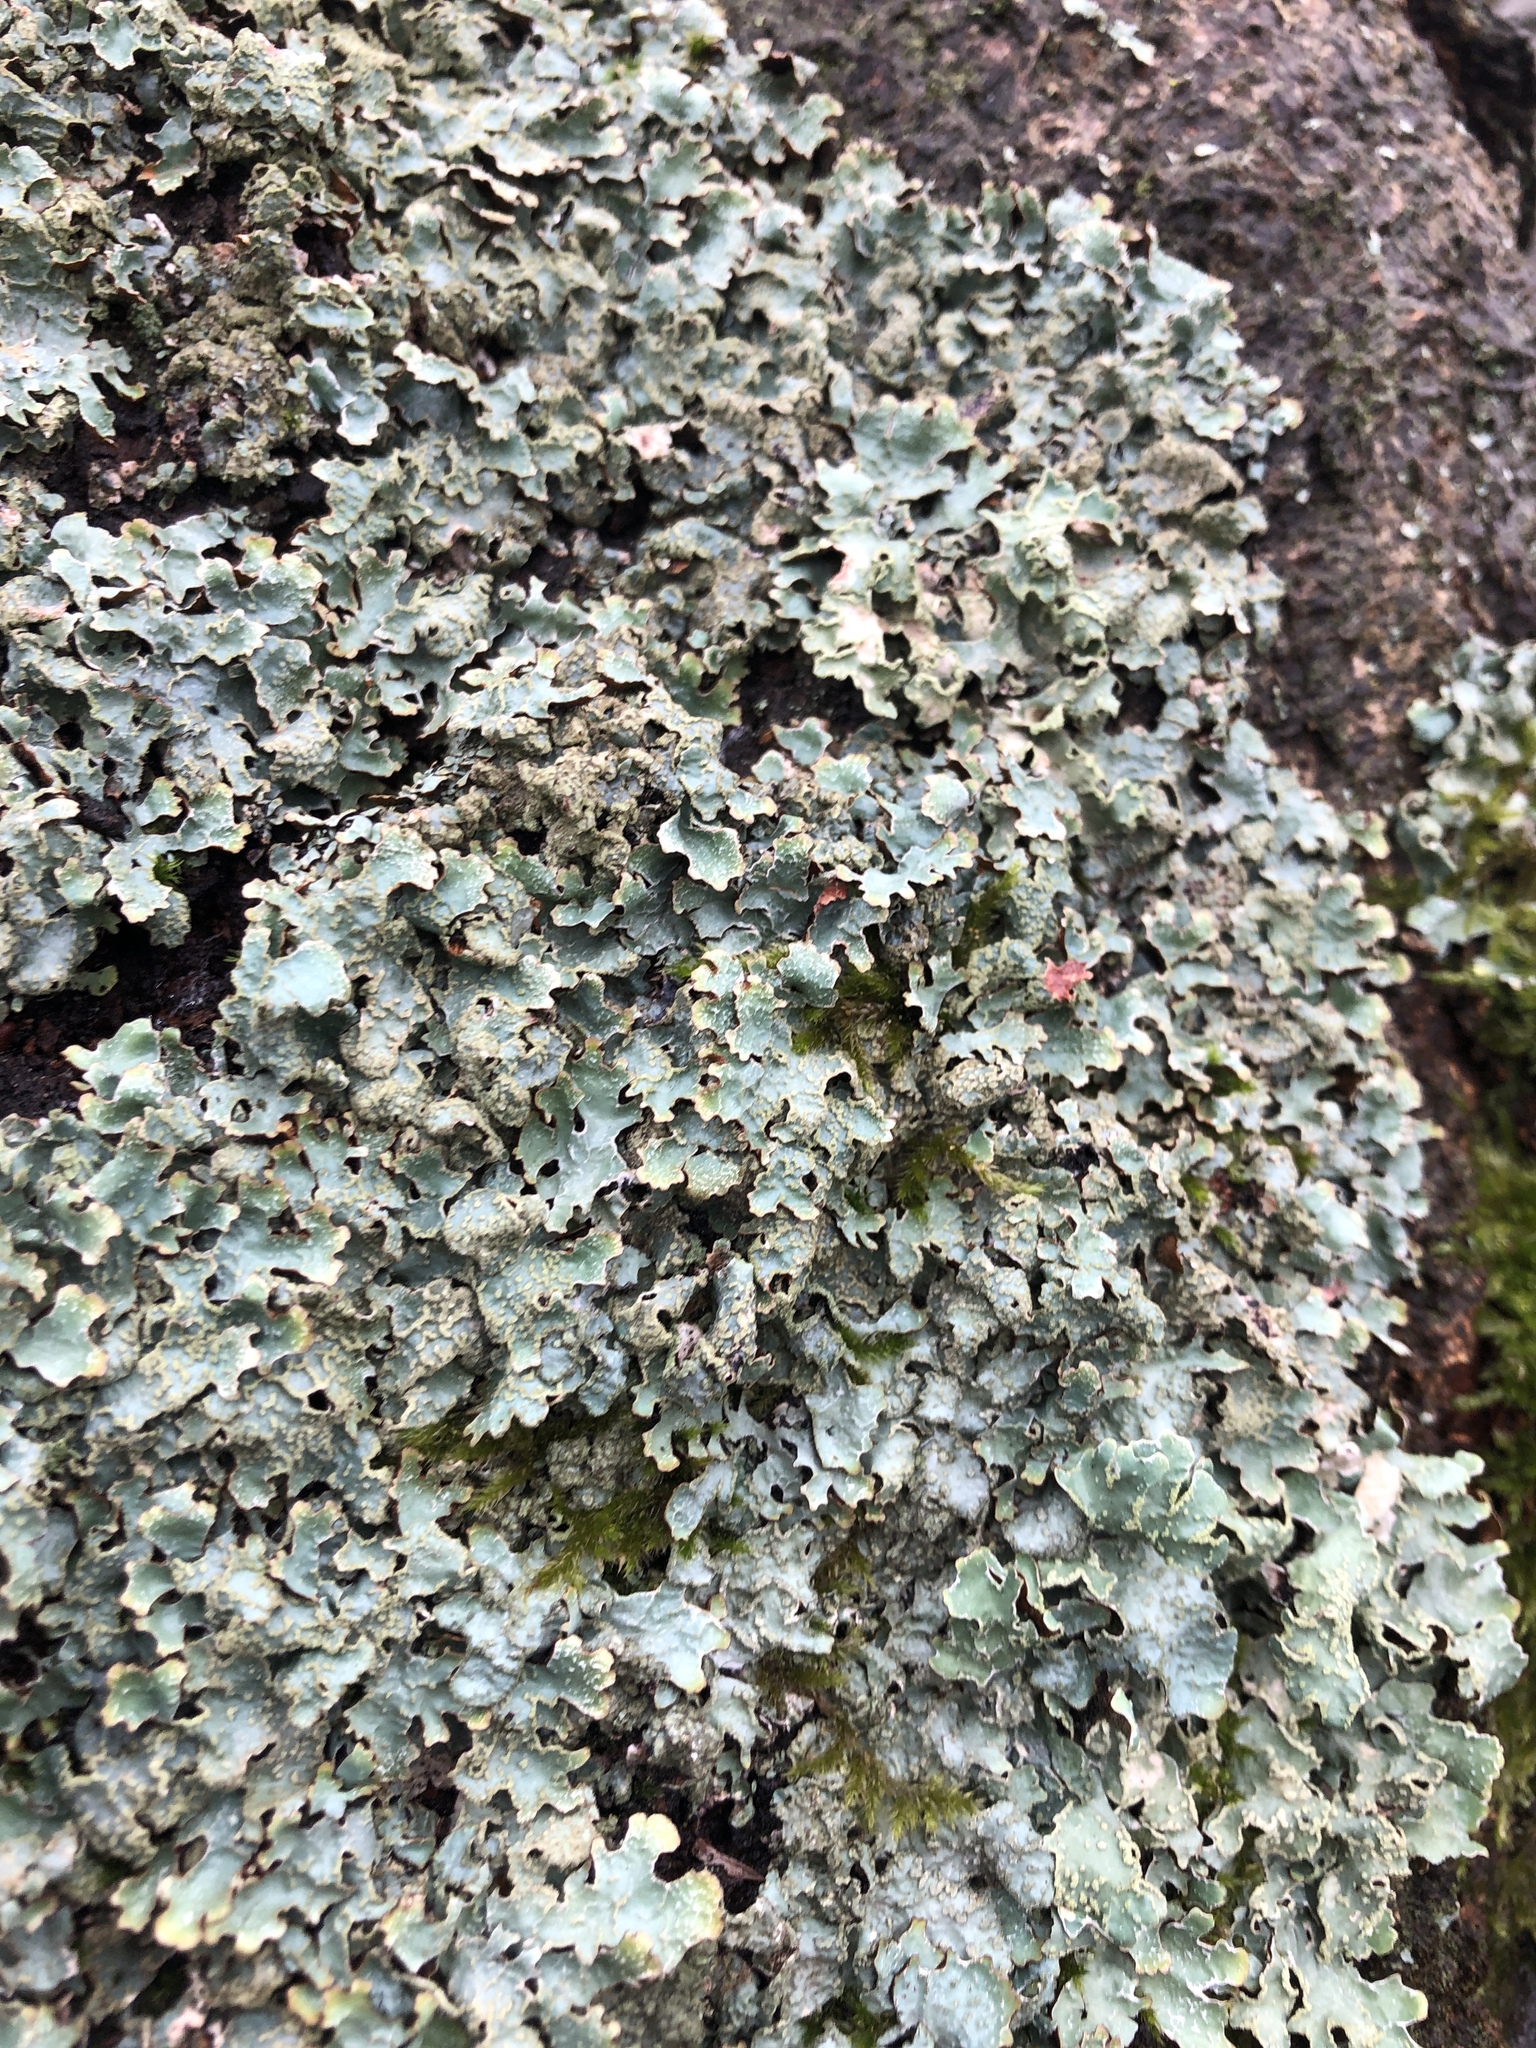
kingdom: Fungi
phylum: Ascomycota
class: Lecanoromycetes
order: Lecanorales
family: Parmeliaceae
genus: Parmelia
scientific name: Parmelia sulcata
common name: Netted shield lichen
